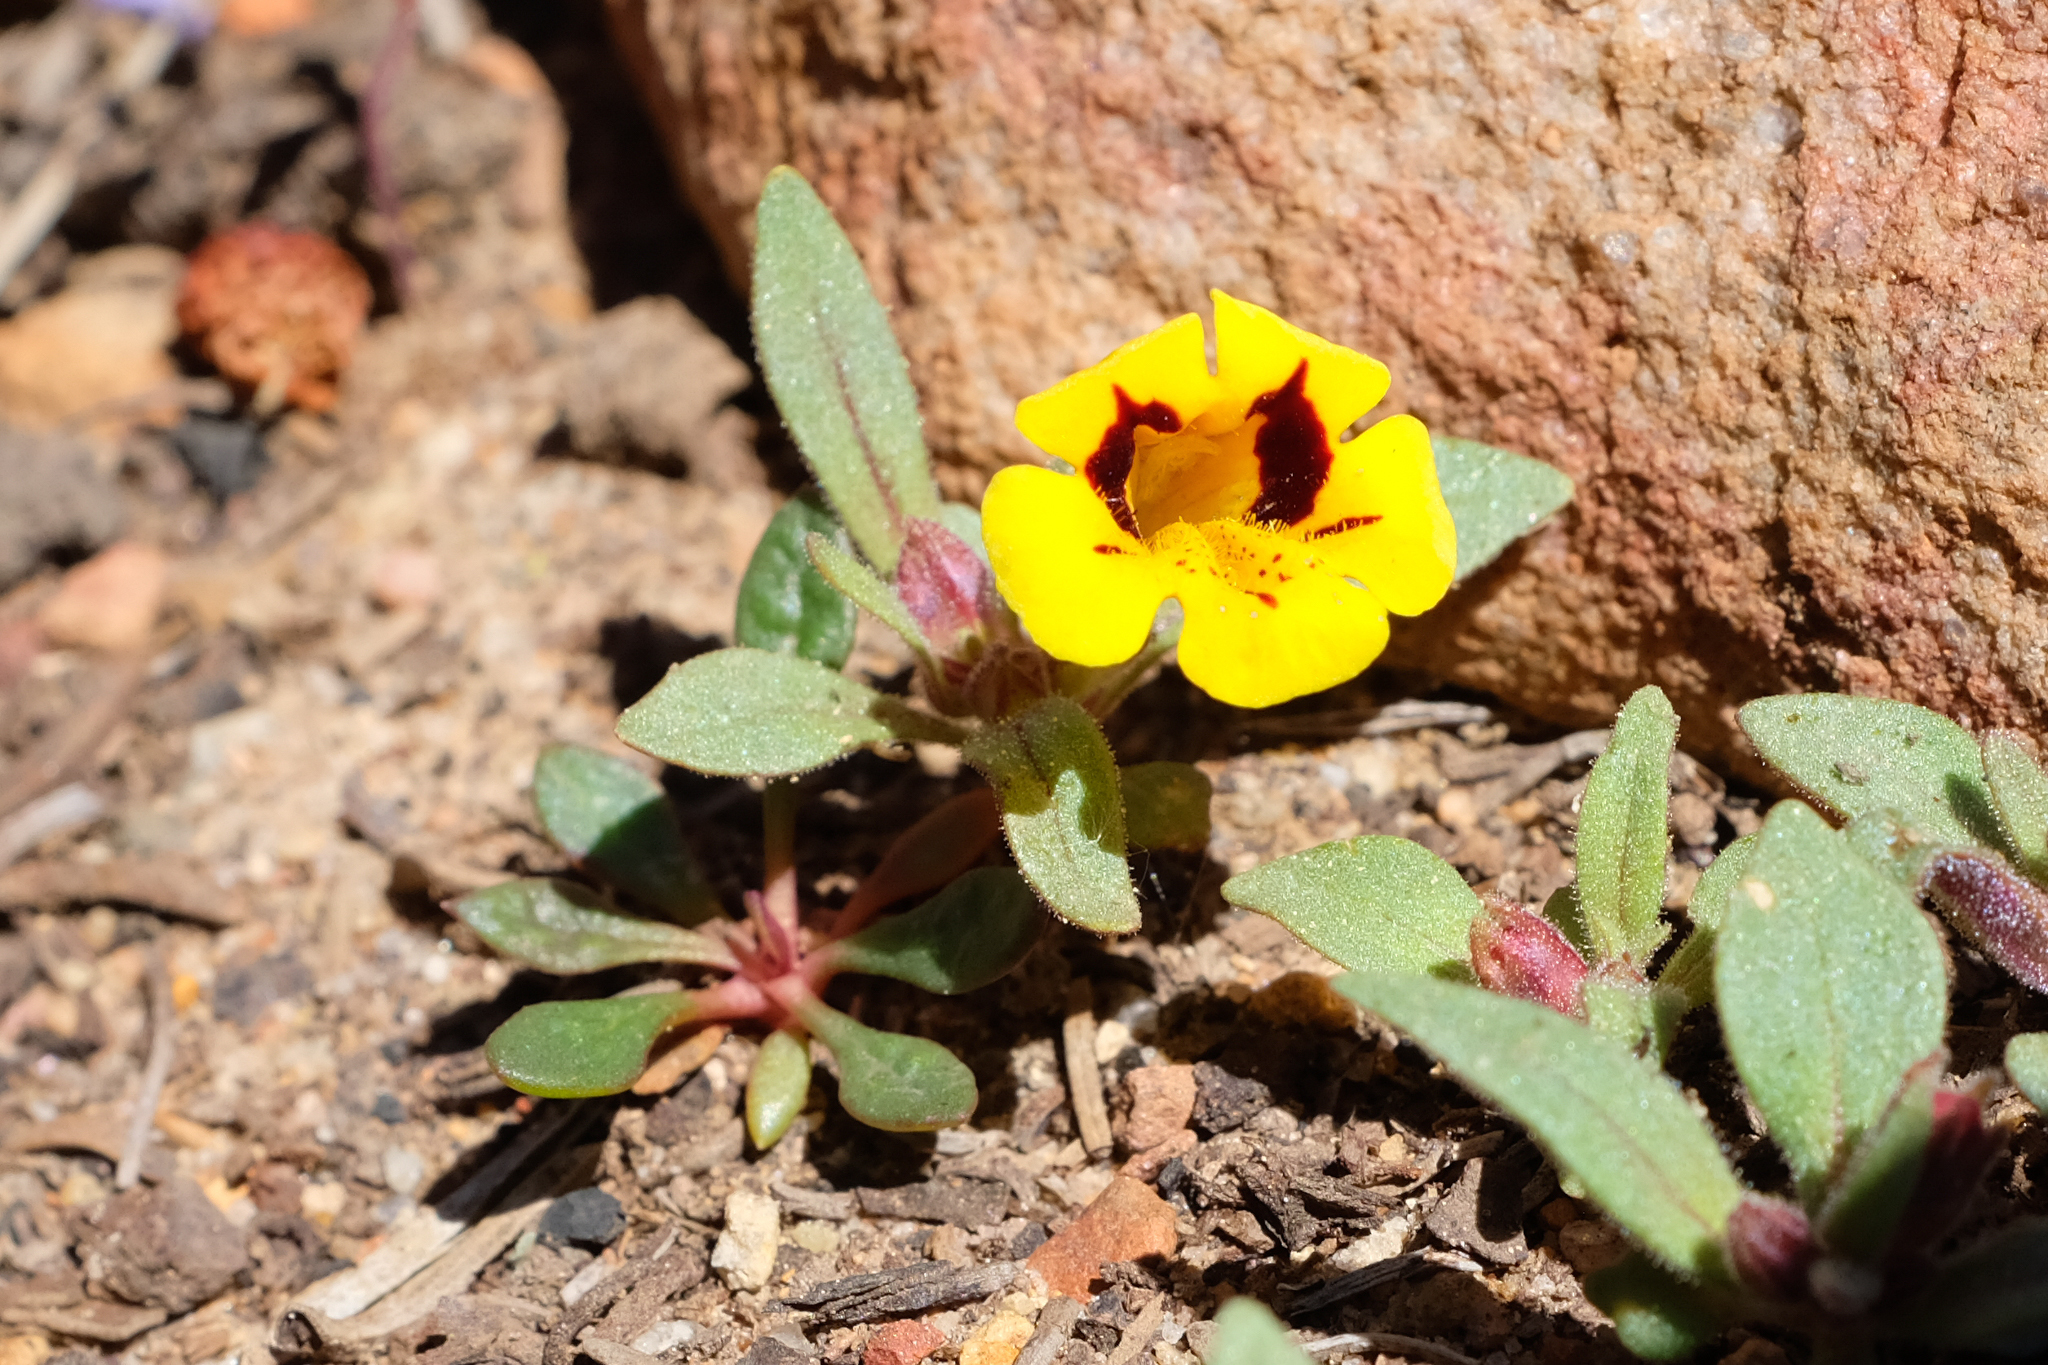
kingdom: Plantae
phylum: Tracheophyta
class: Magnoliopsida
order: Lamiales
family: Phrymaceae
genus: Diplacus
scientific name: Diplacus bicolor
